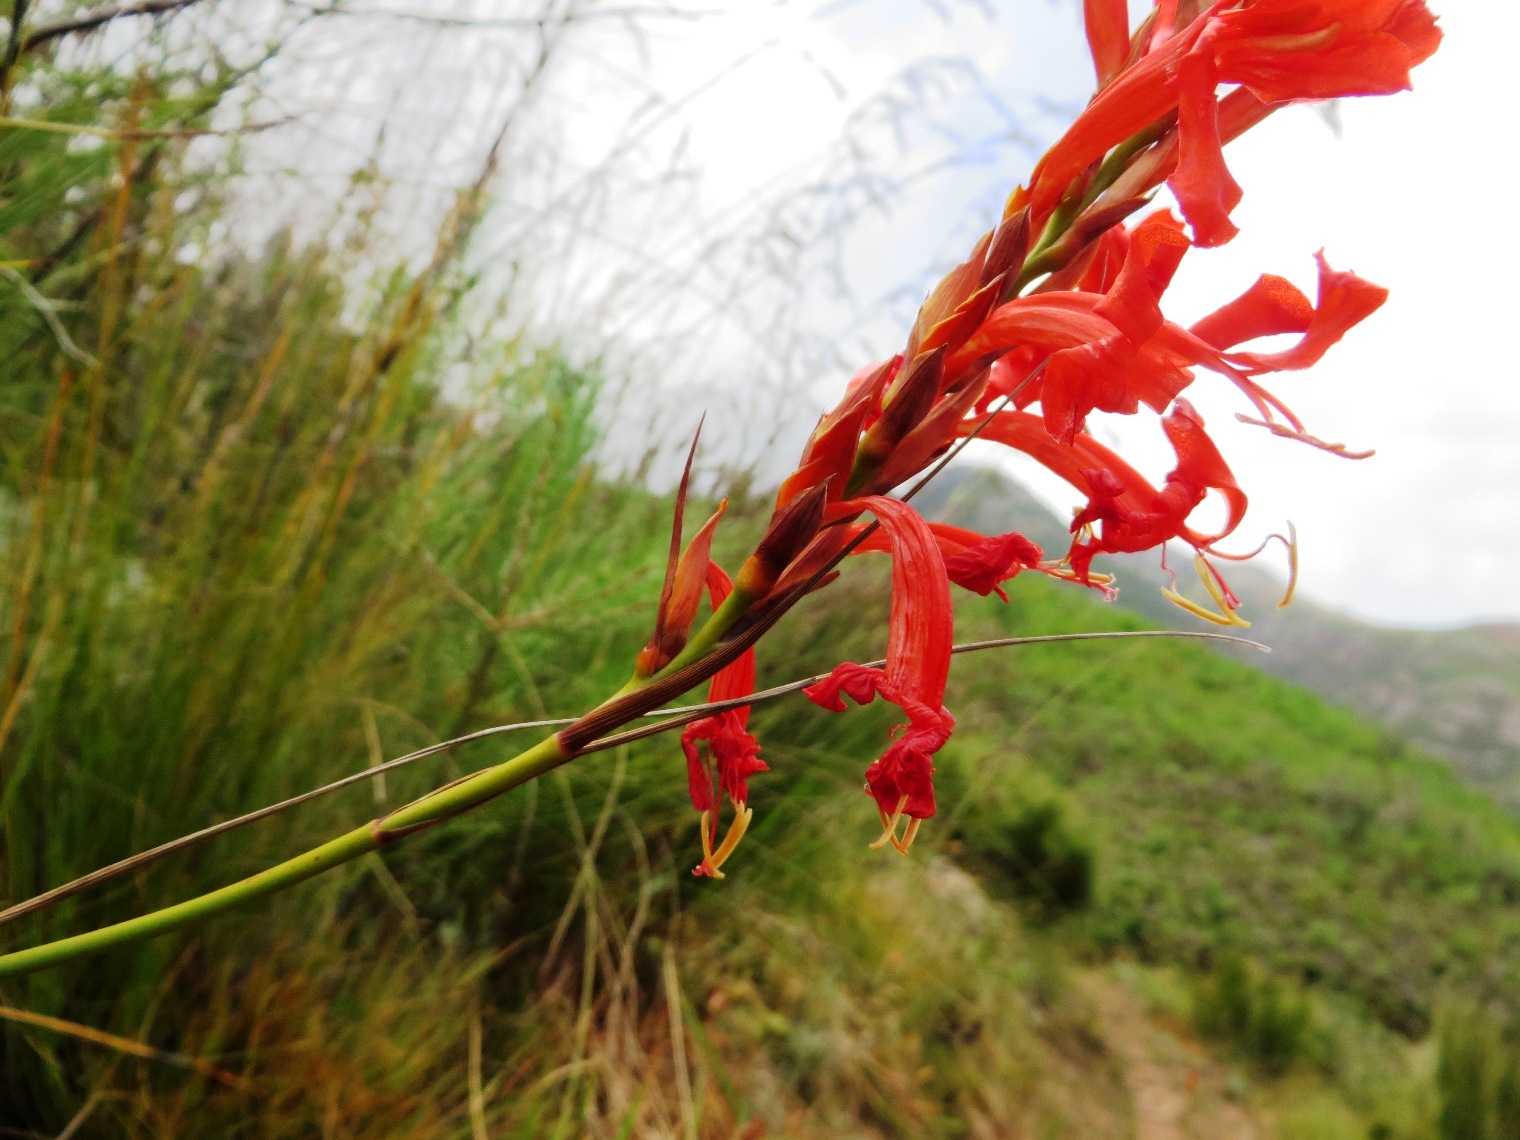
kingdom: Plantae
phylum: Tracheophyta
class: Liliopsida
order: Asparagales
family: Iridaceae
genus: Tritoniopsis
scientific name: Tritoniopsis triticea
